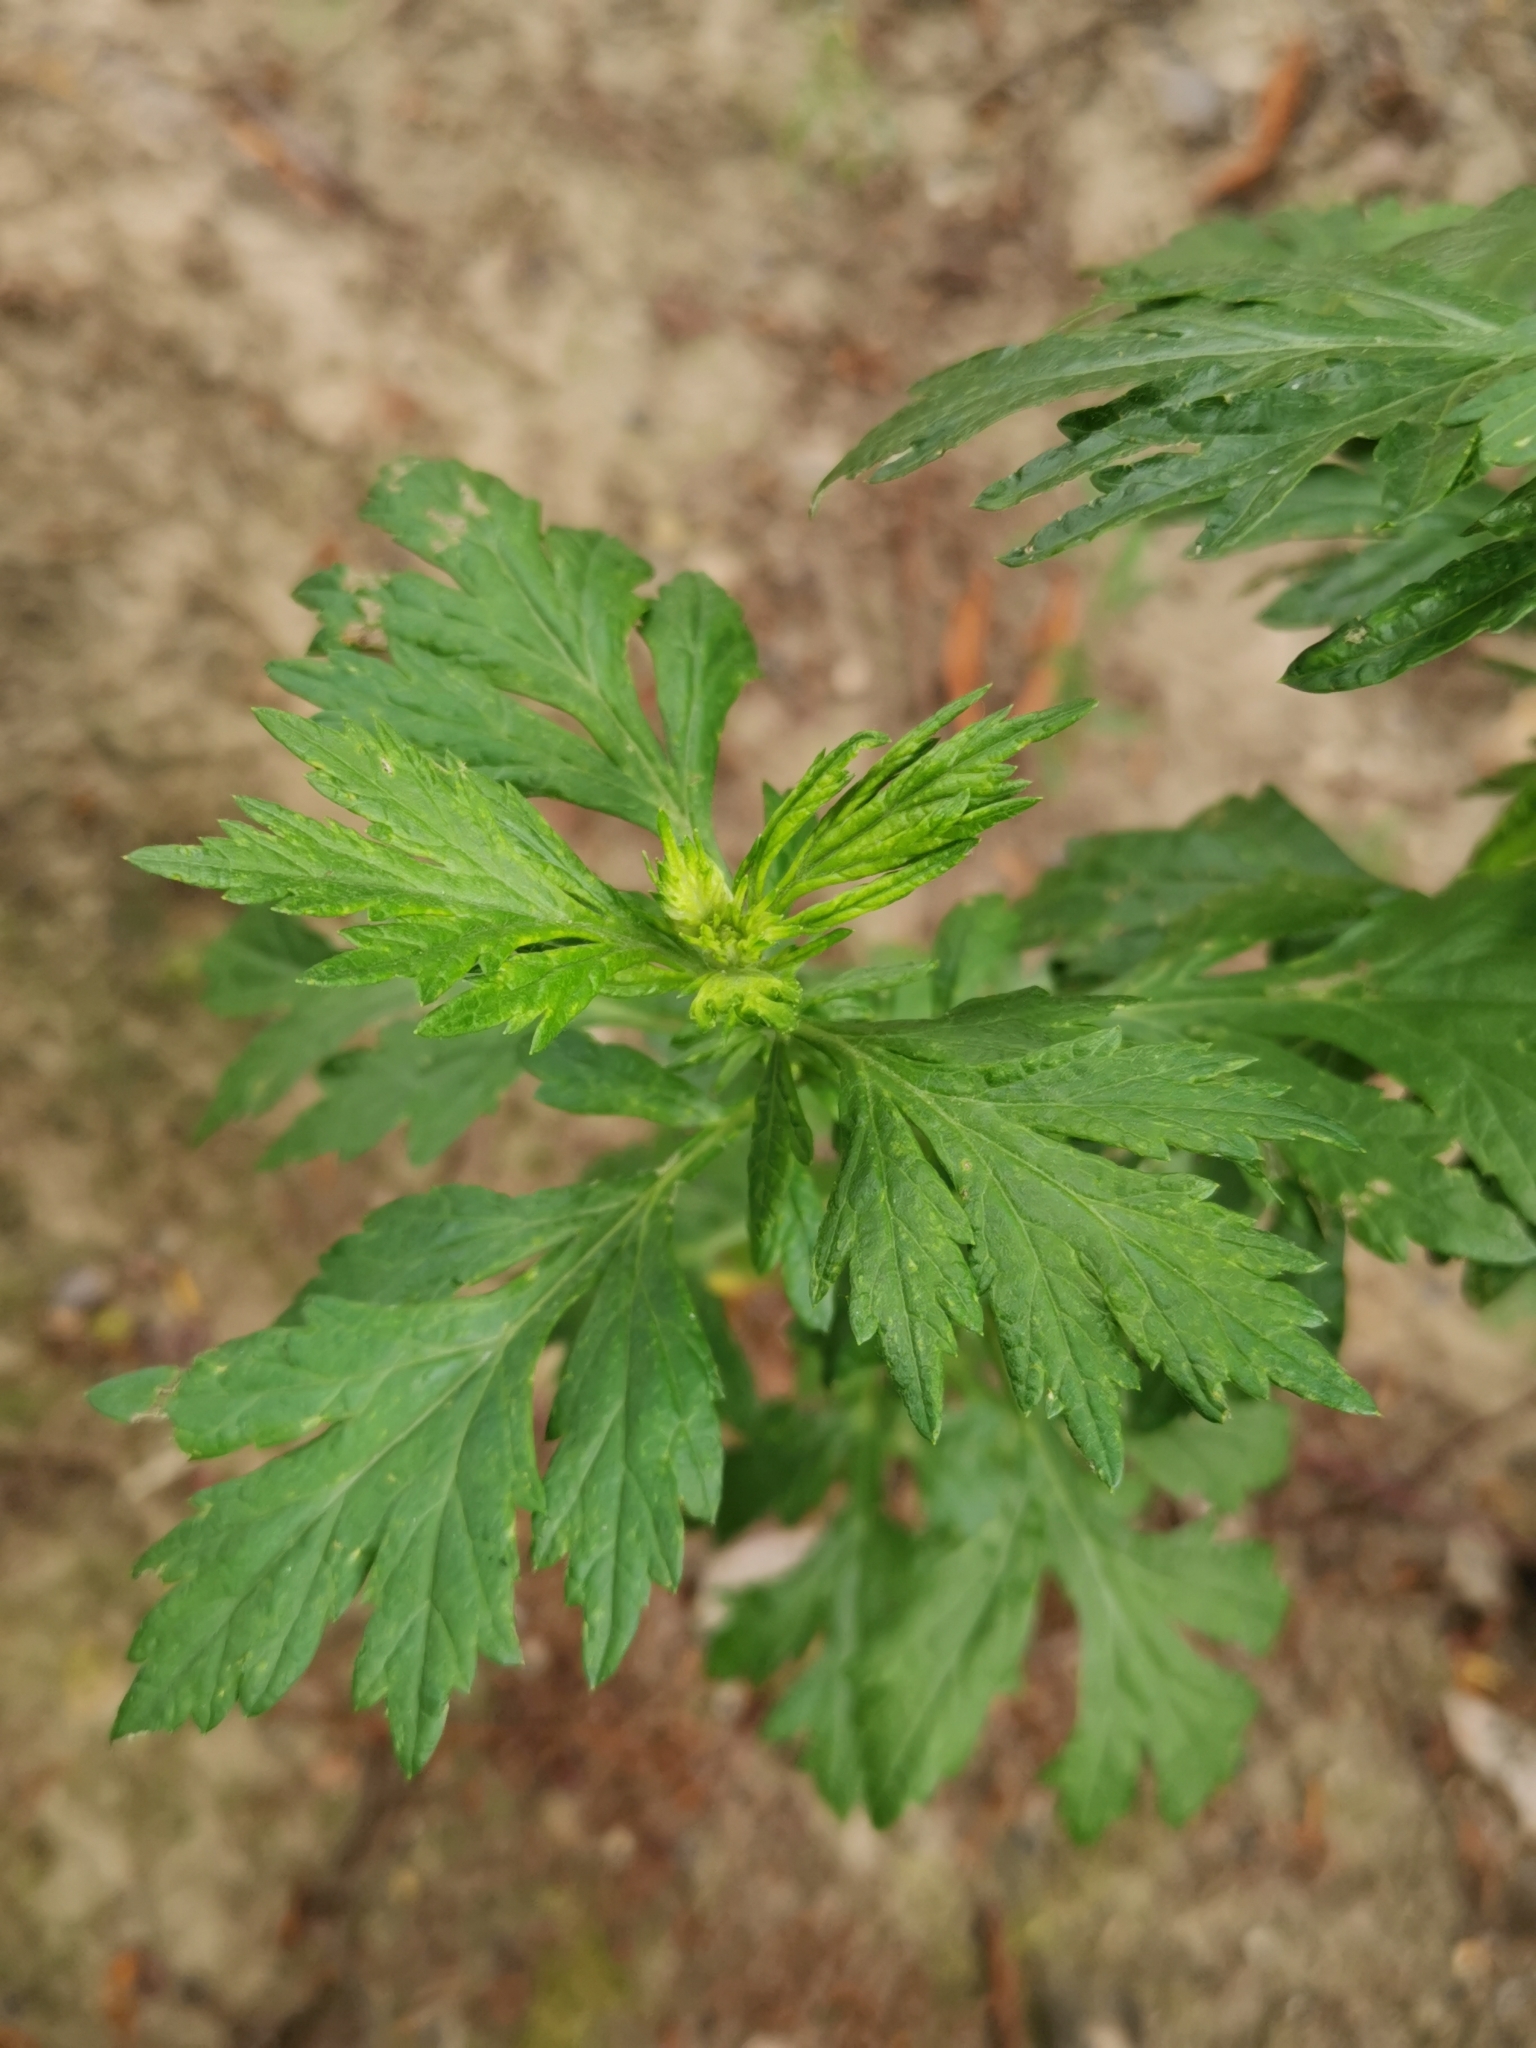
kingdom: Plantae
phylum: Tracheophyta
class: Magnoliopsida
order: Asterales
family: Asteraceae
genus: Artemisia
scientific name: Artemisia vulgaris
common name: Mugwort
